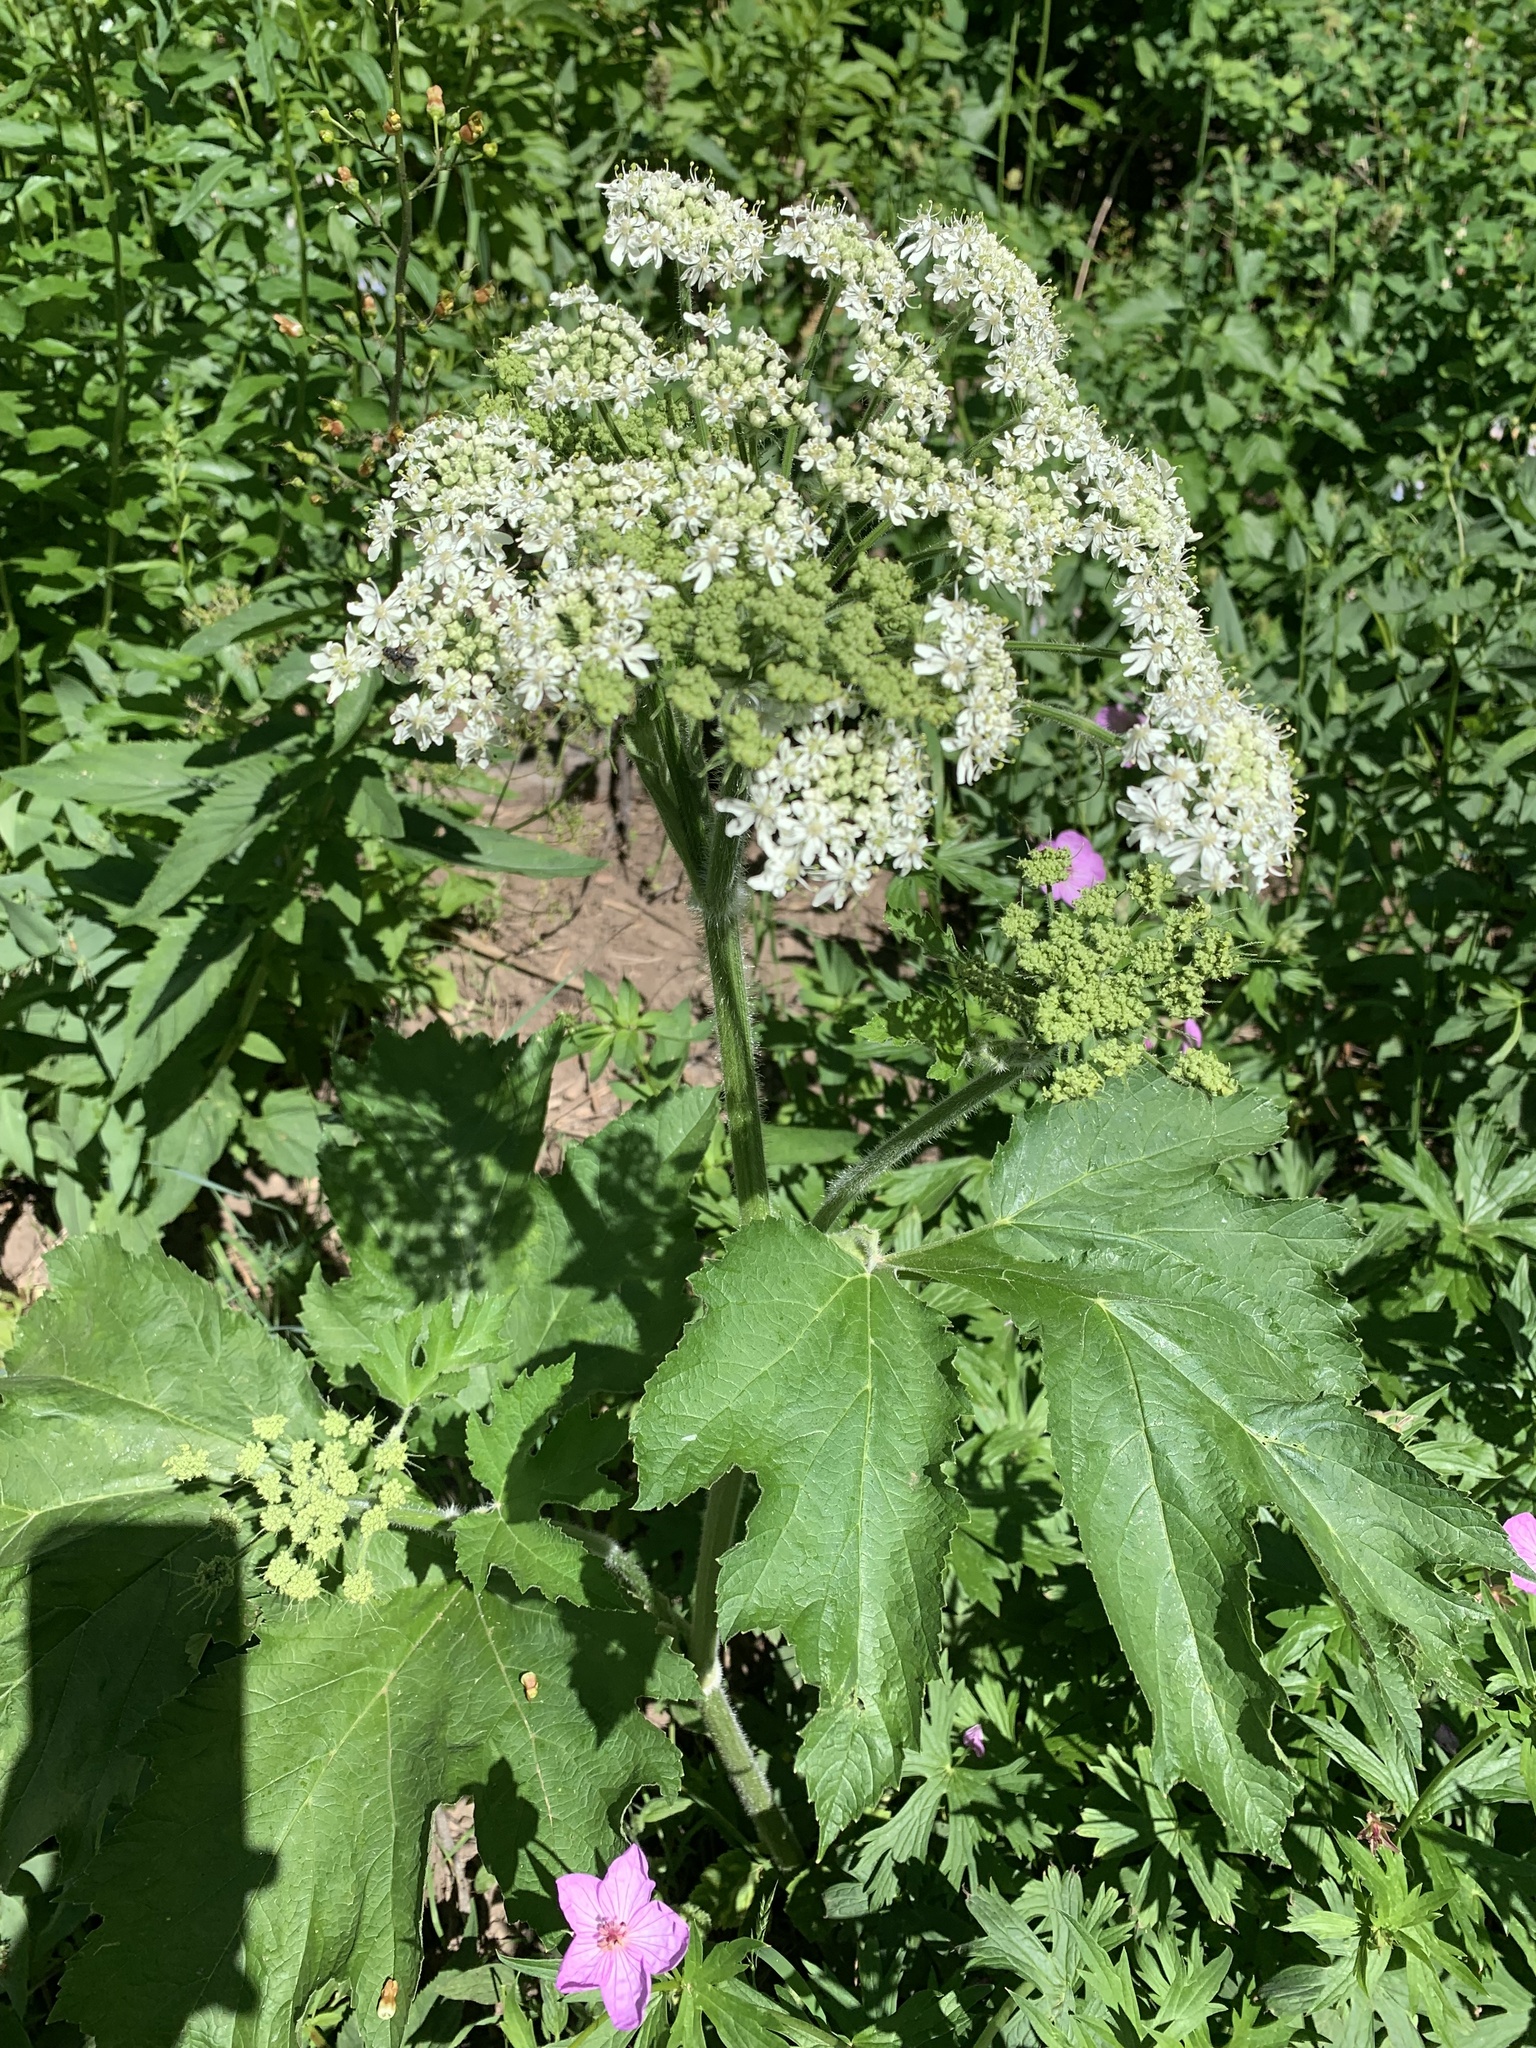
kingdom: Plantae
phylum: Tracheophyta
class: Magnoliopsida
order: Apiales
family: Apiaceae
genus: Heracleum
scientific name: Heracleum maximum
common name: American cow parsnip
